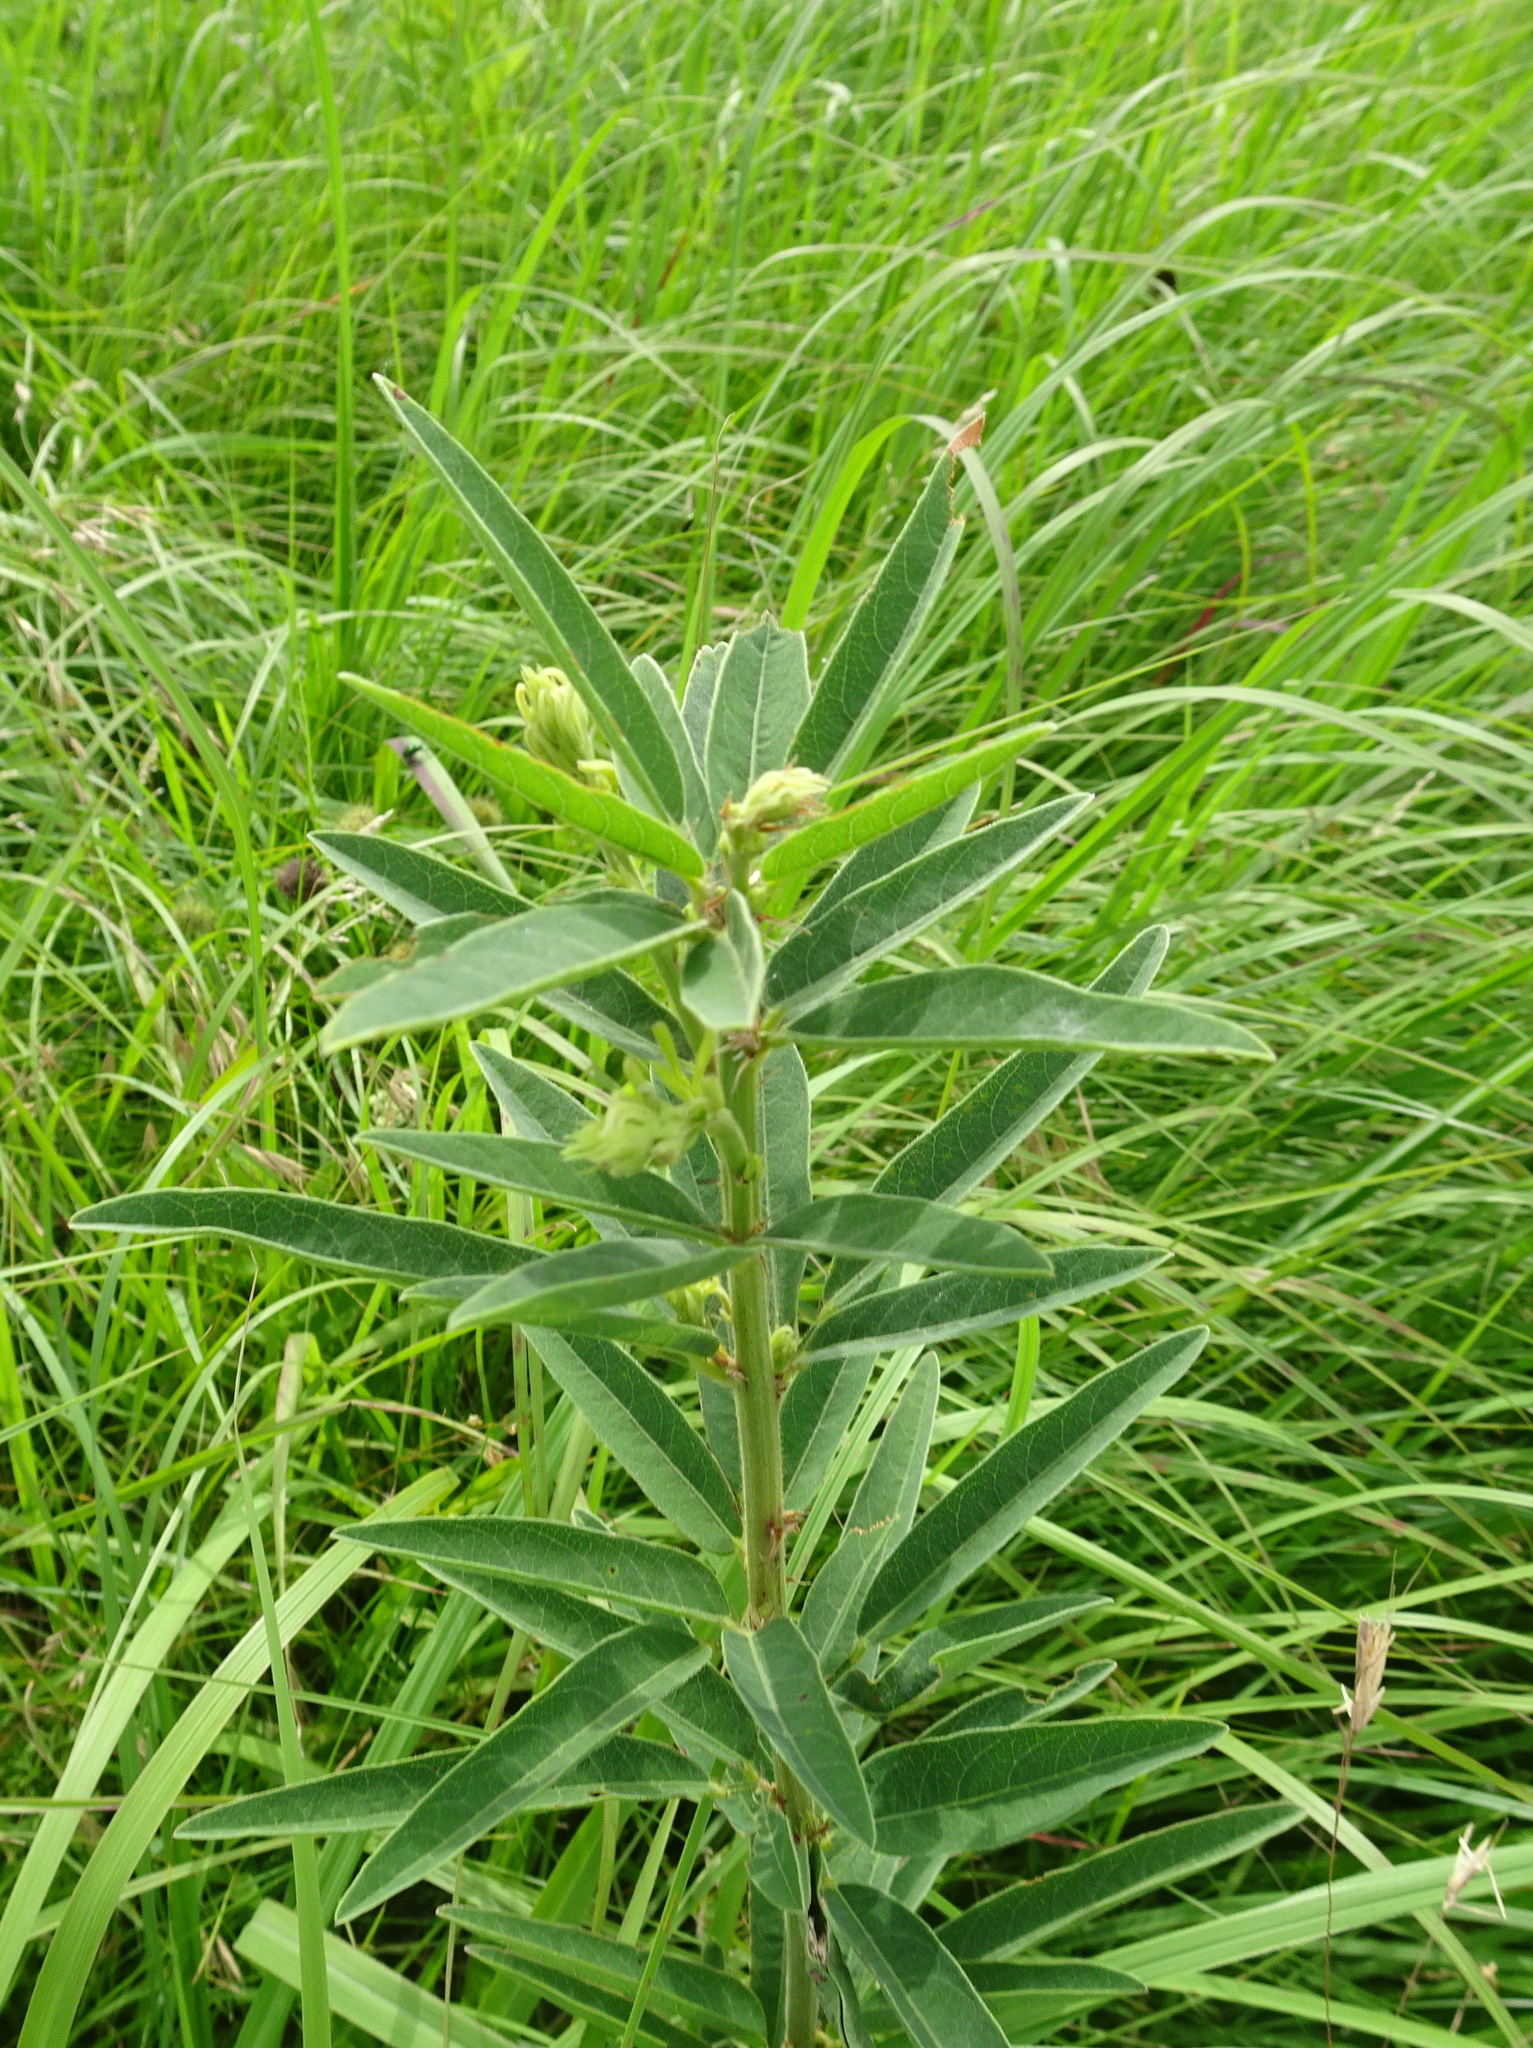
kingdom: Plantae
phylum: Tracheophyta
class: Magnoliopsida
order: Fabales
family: Fabaceae
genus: Desmodium
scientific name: Desmodium sessilifolium
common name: Sessile tick-clover
